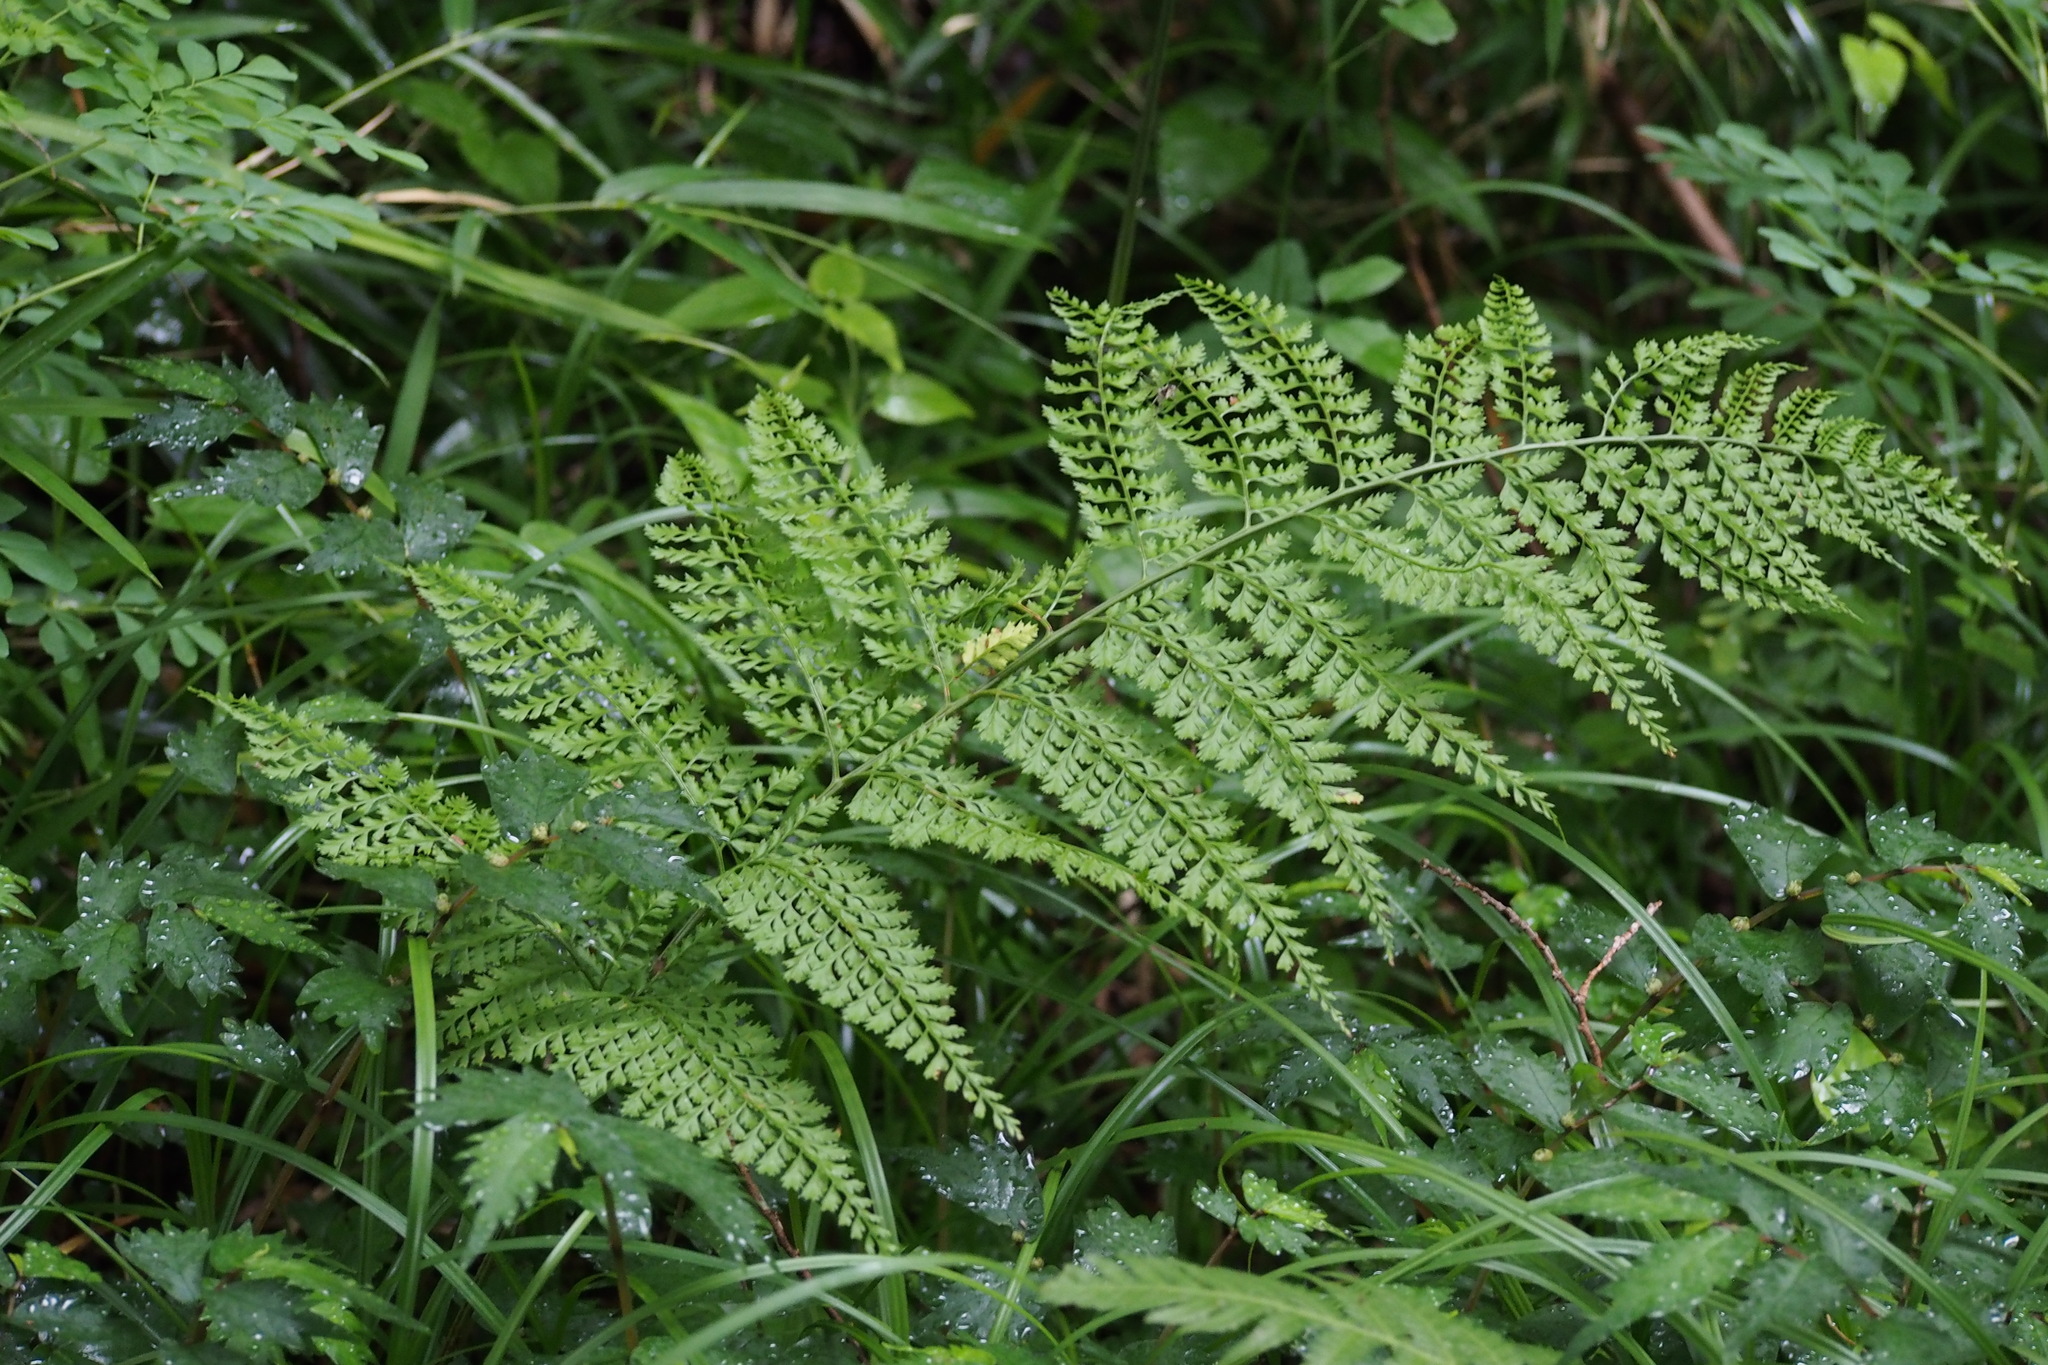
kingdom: Plantae
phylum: Tracheophyta
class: Polypodiopsida
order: Polypodiales
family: Dryopteridaceae
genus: Arachniodes
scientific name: Arachniodes standishii
